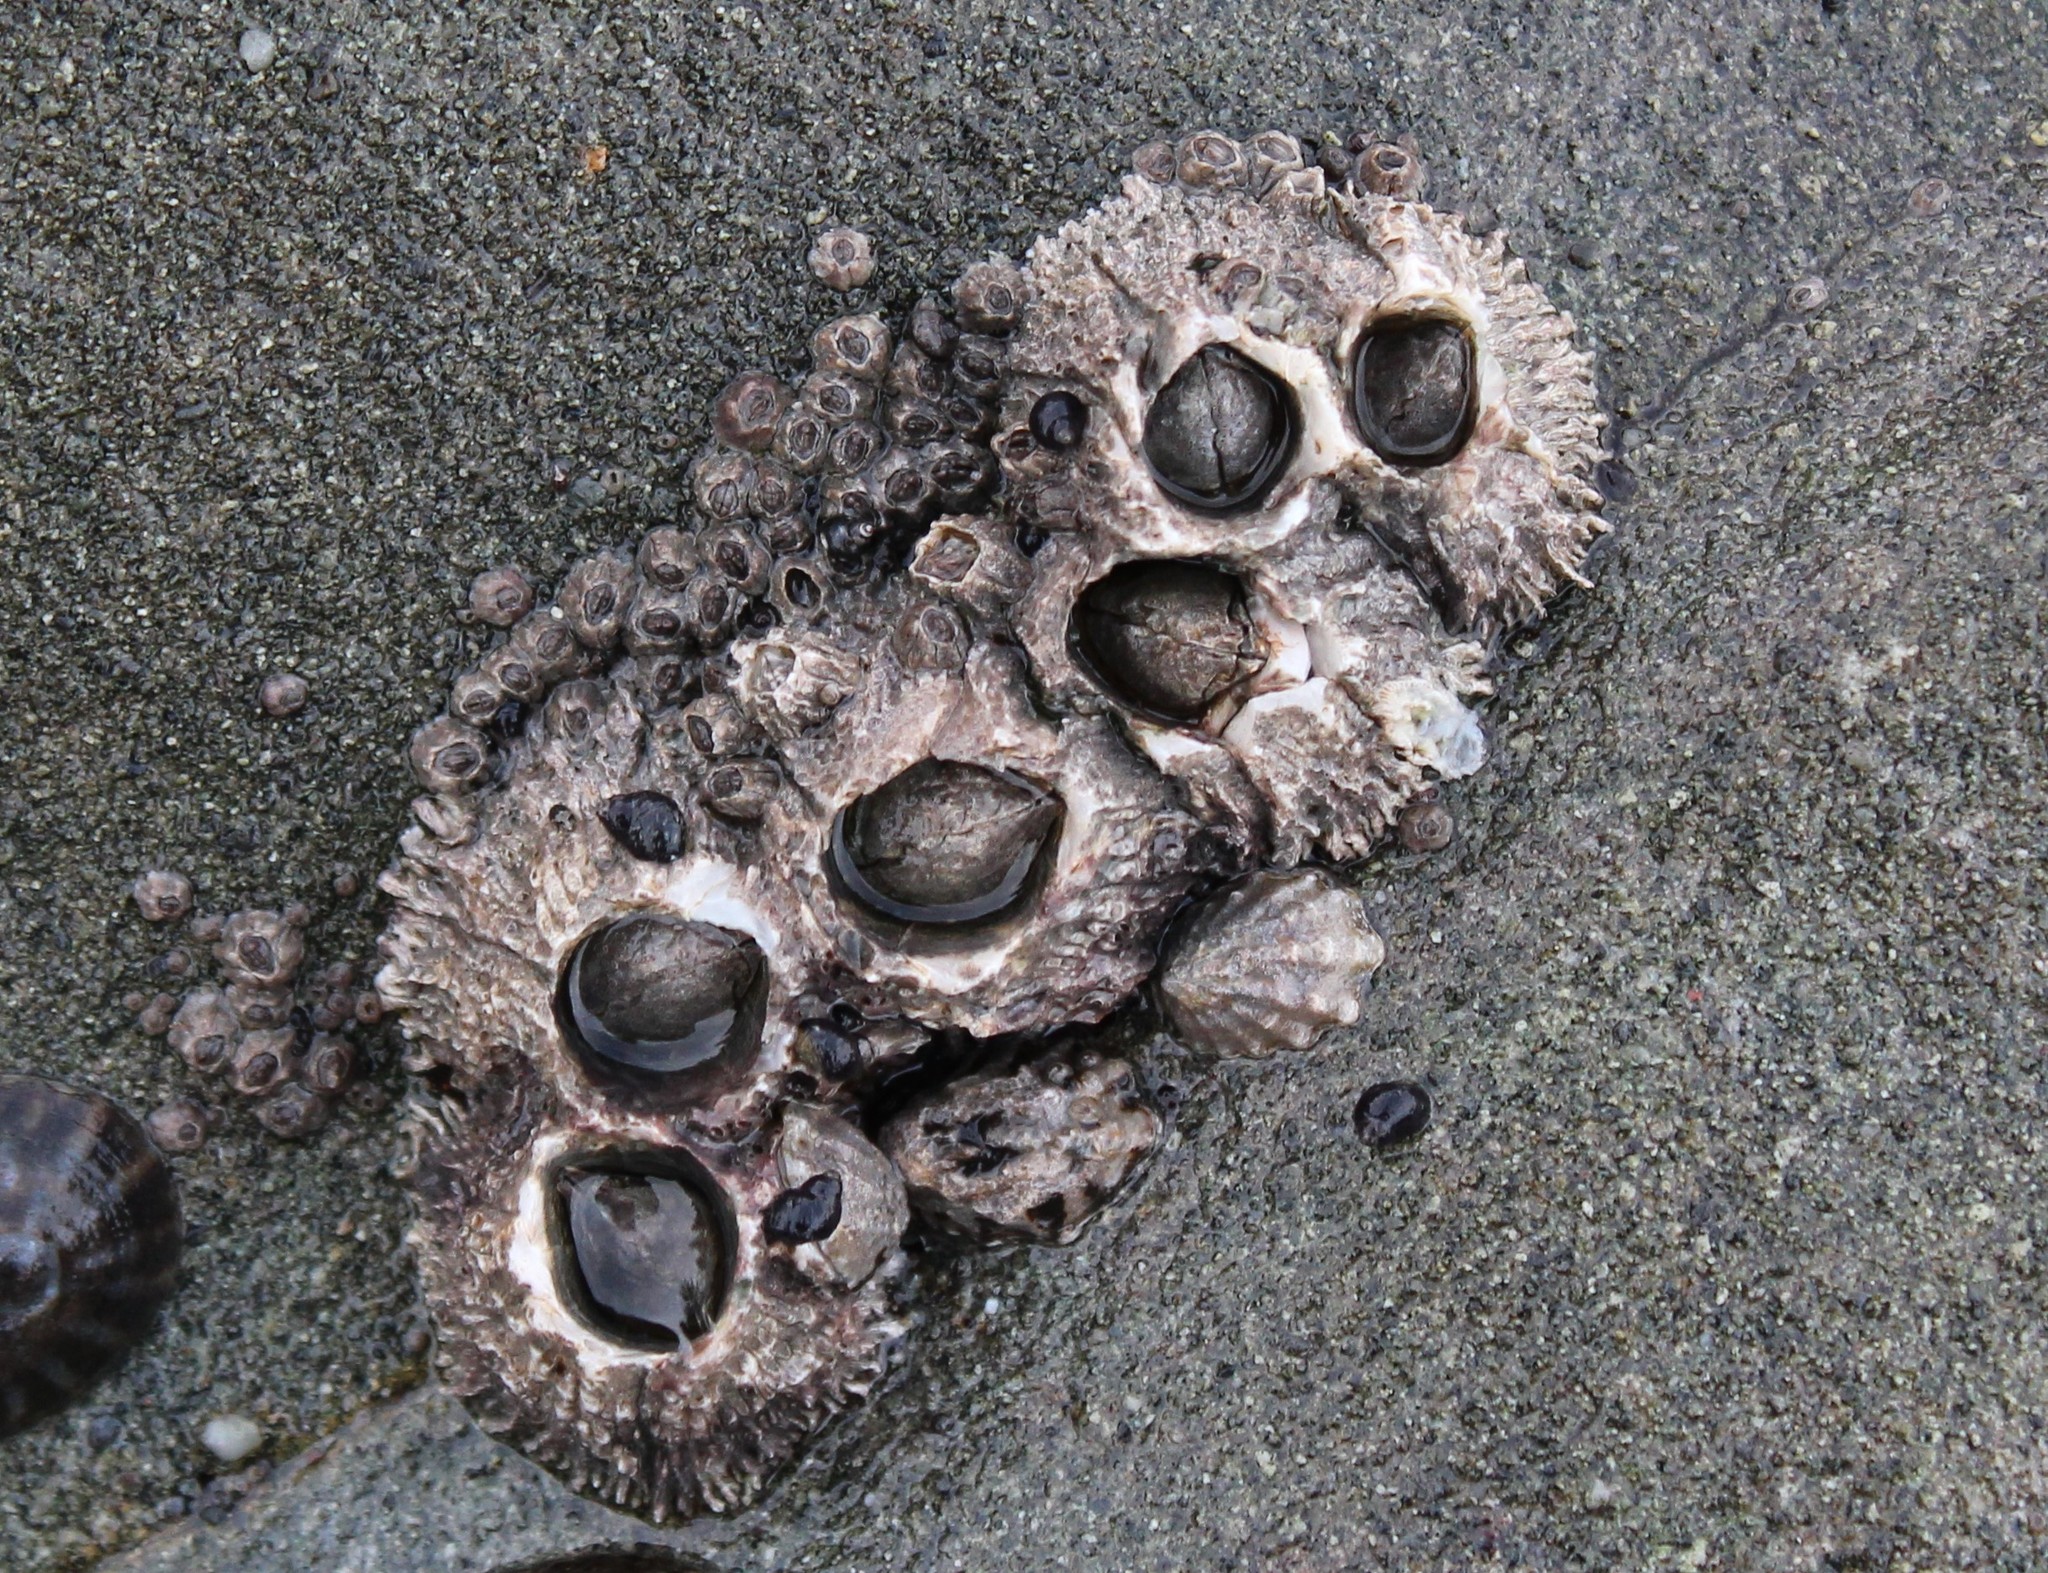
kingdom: Animalia
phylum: Arthropoda
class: Maxillopoda
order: Sessilia
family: Archaeobalanidae
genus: Semibalanus
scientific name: Semibalanus cariosus
